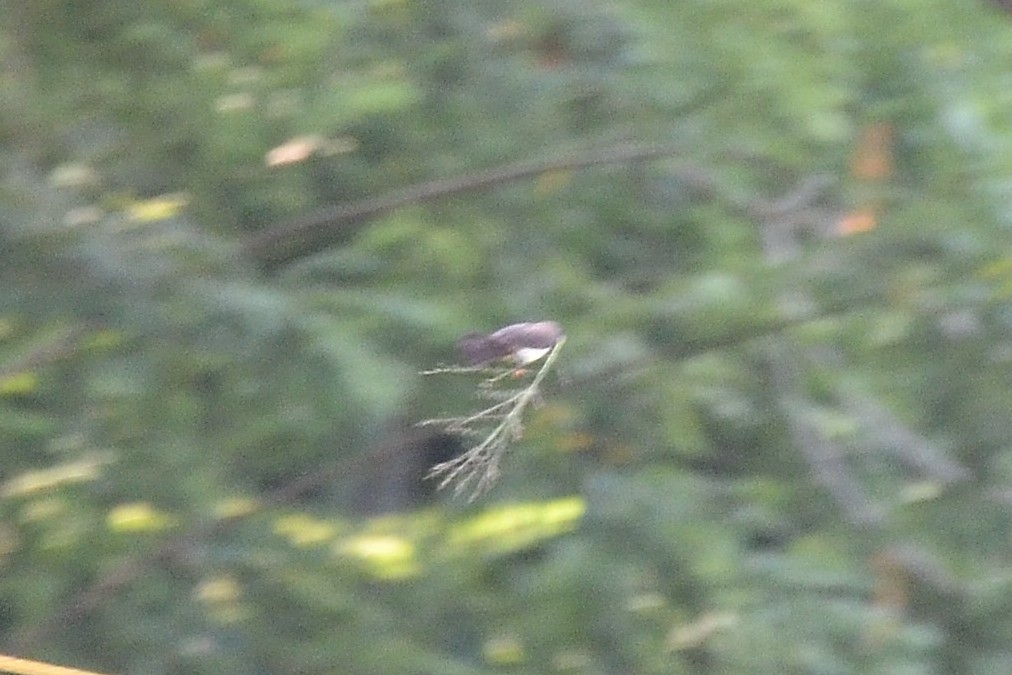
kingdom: Animalia
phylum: Chordata
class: Aves
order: Passeriformes
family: Estrildidae
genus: Lonchura
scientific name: Lonchura striata
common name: White-rumped munia
